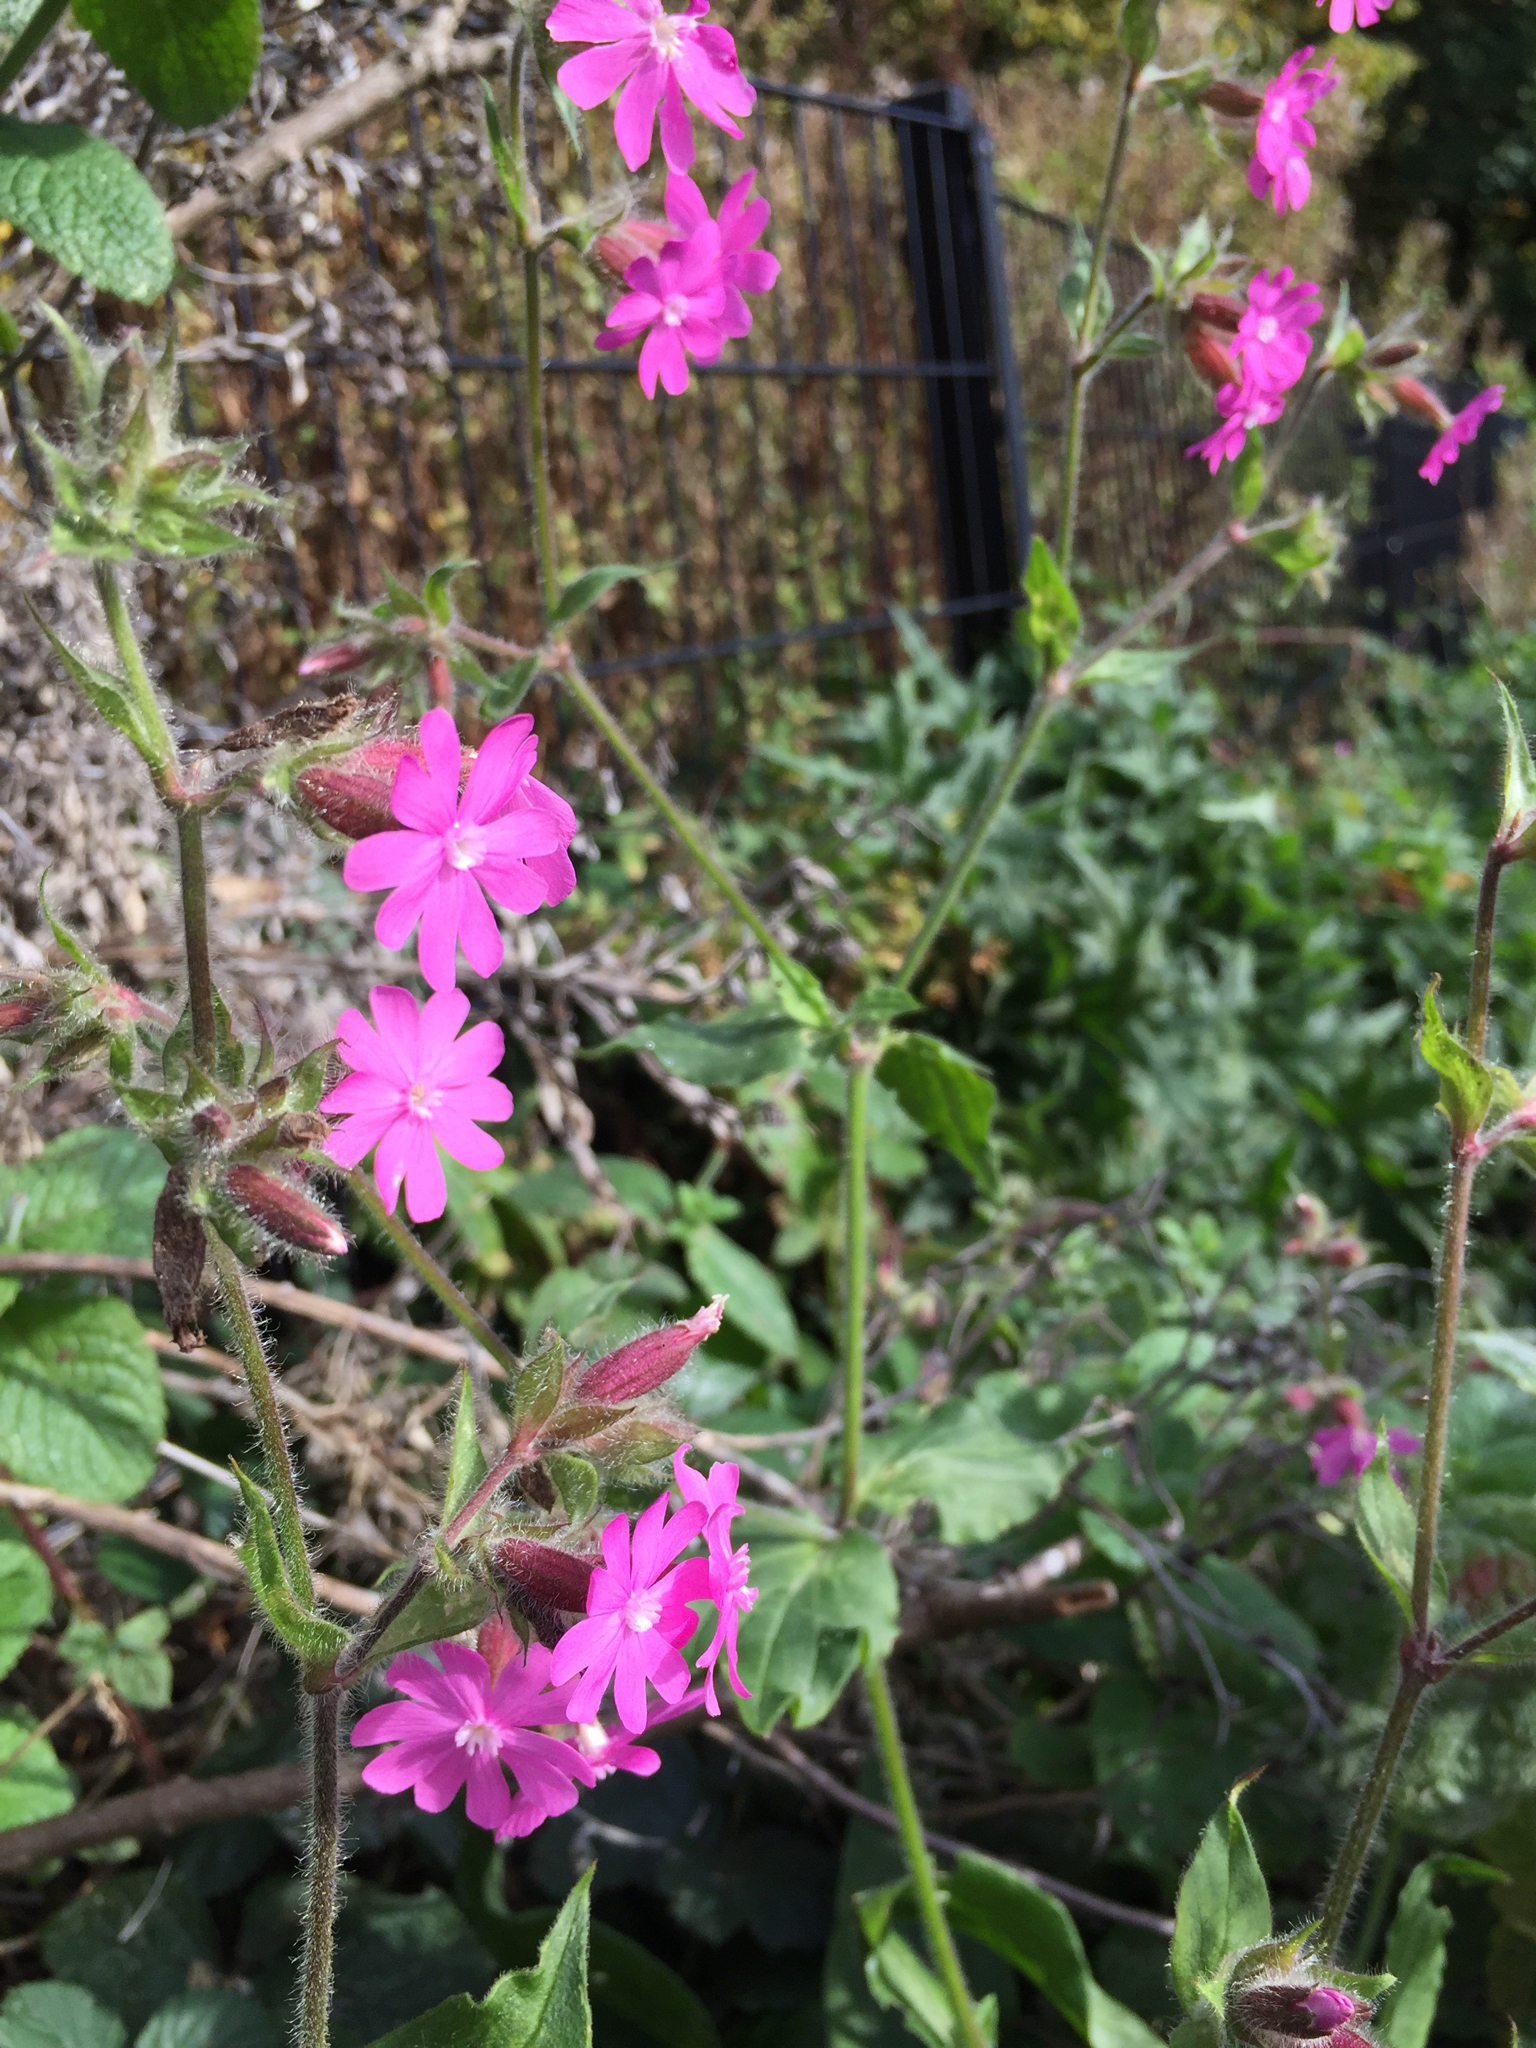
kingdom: Plantae
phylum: Tracheophyta
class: Magnoliopsida
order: Caryophyllales
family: Caryophyllaceae
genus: Silene
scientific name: Silene dioica
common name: Red campion
